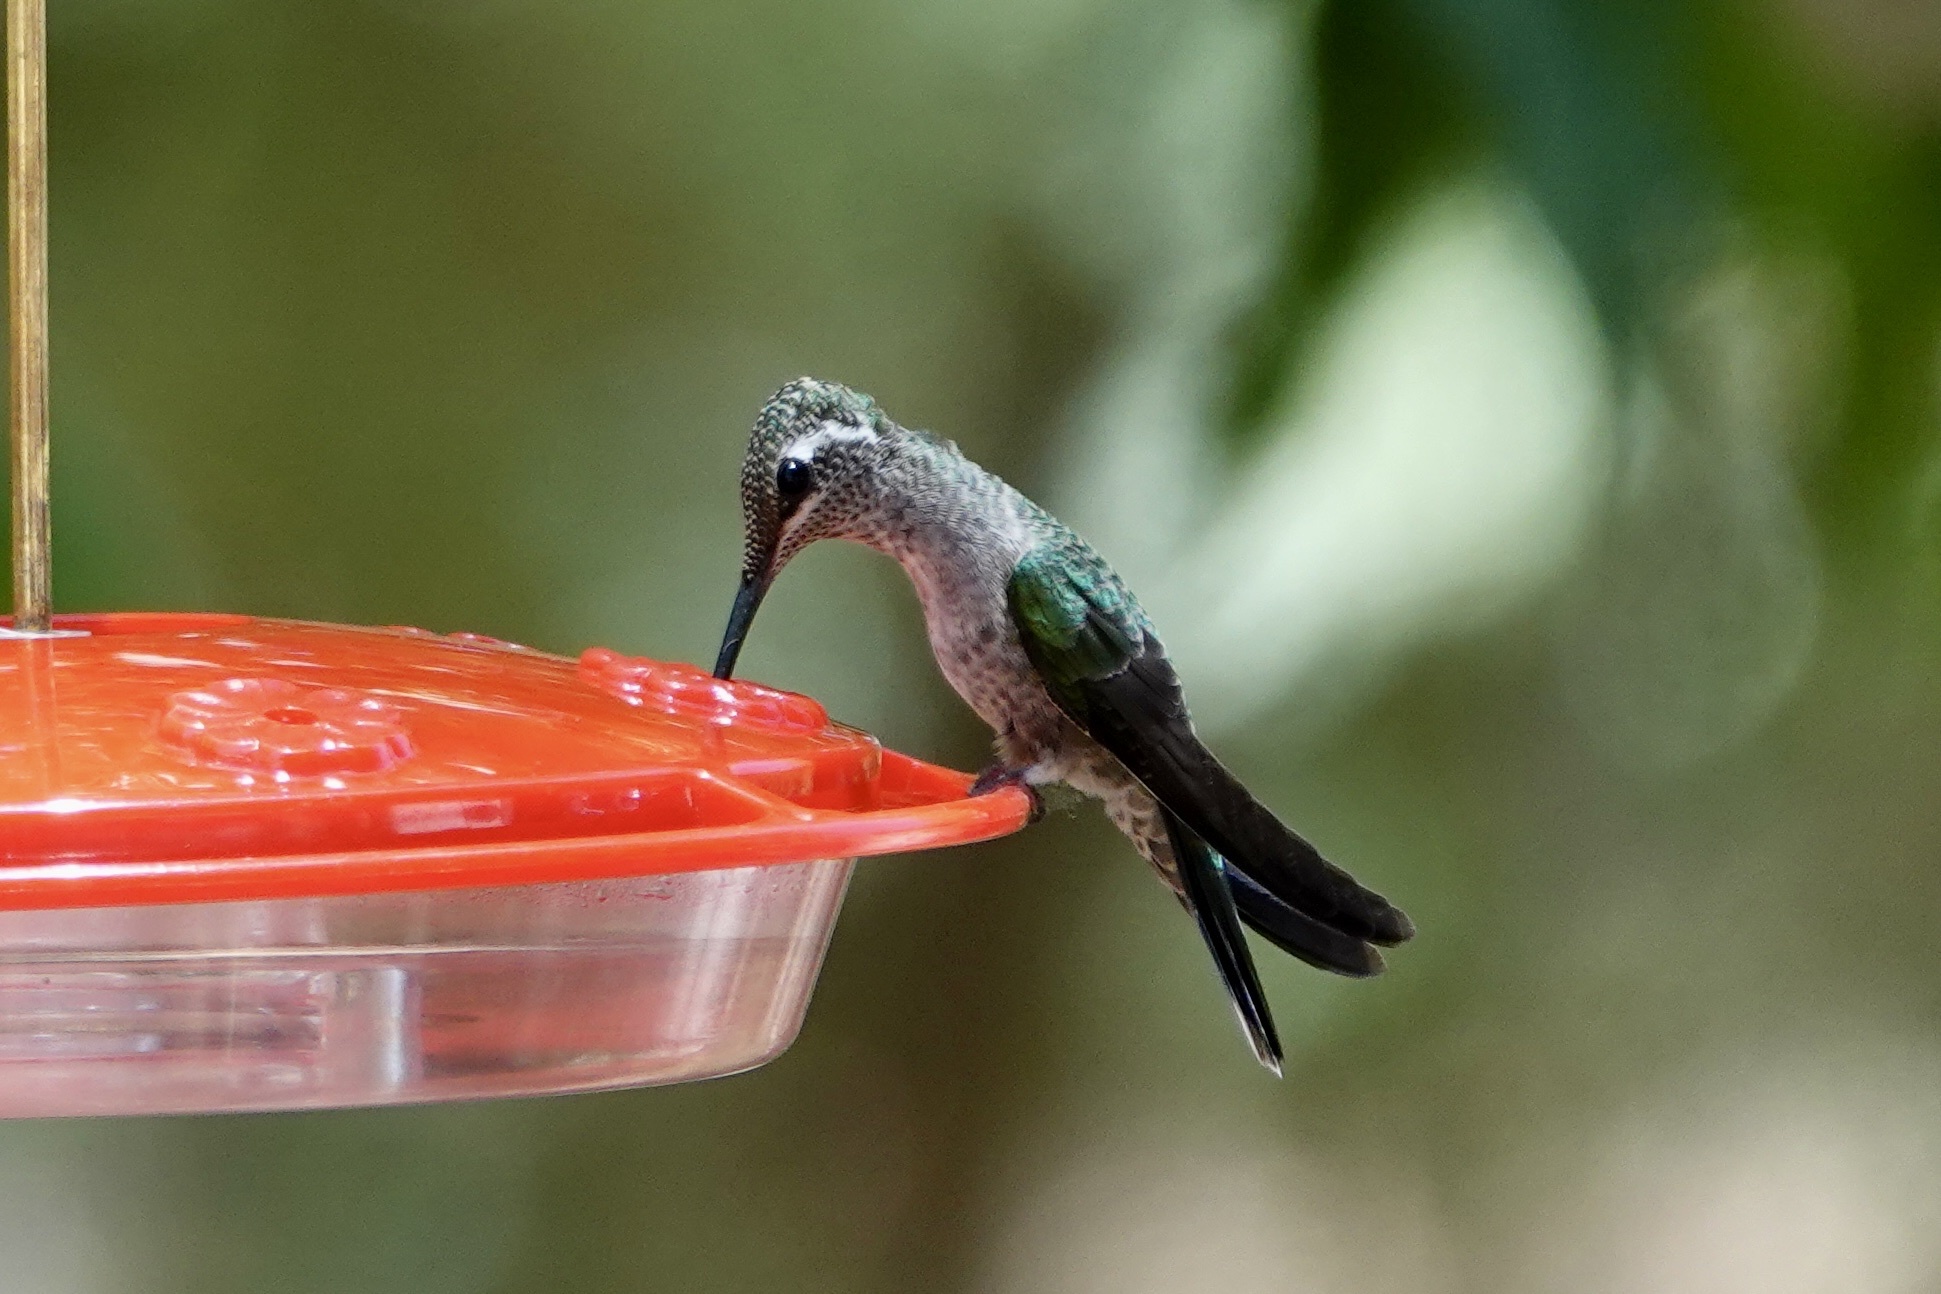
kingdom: Animalia
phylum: Chordata
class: Aves
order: Apodiformes
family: Trochilidae
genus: Eugenes
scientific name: Eugenes fulgens
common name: Magnificent hummingbird
